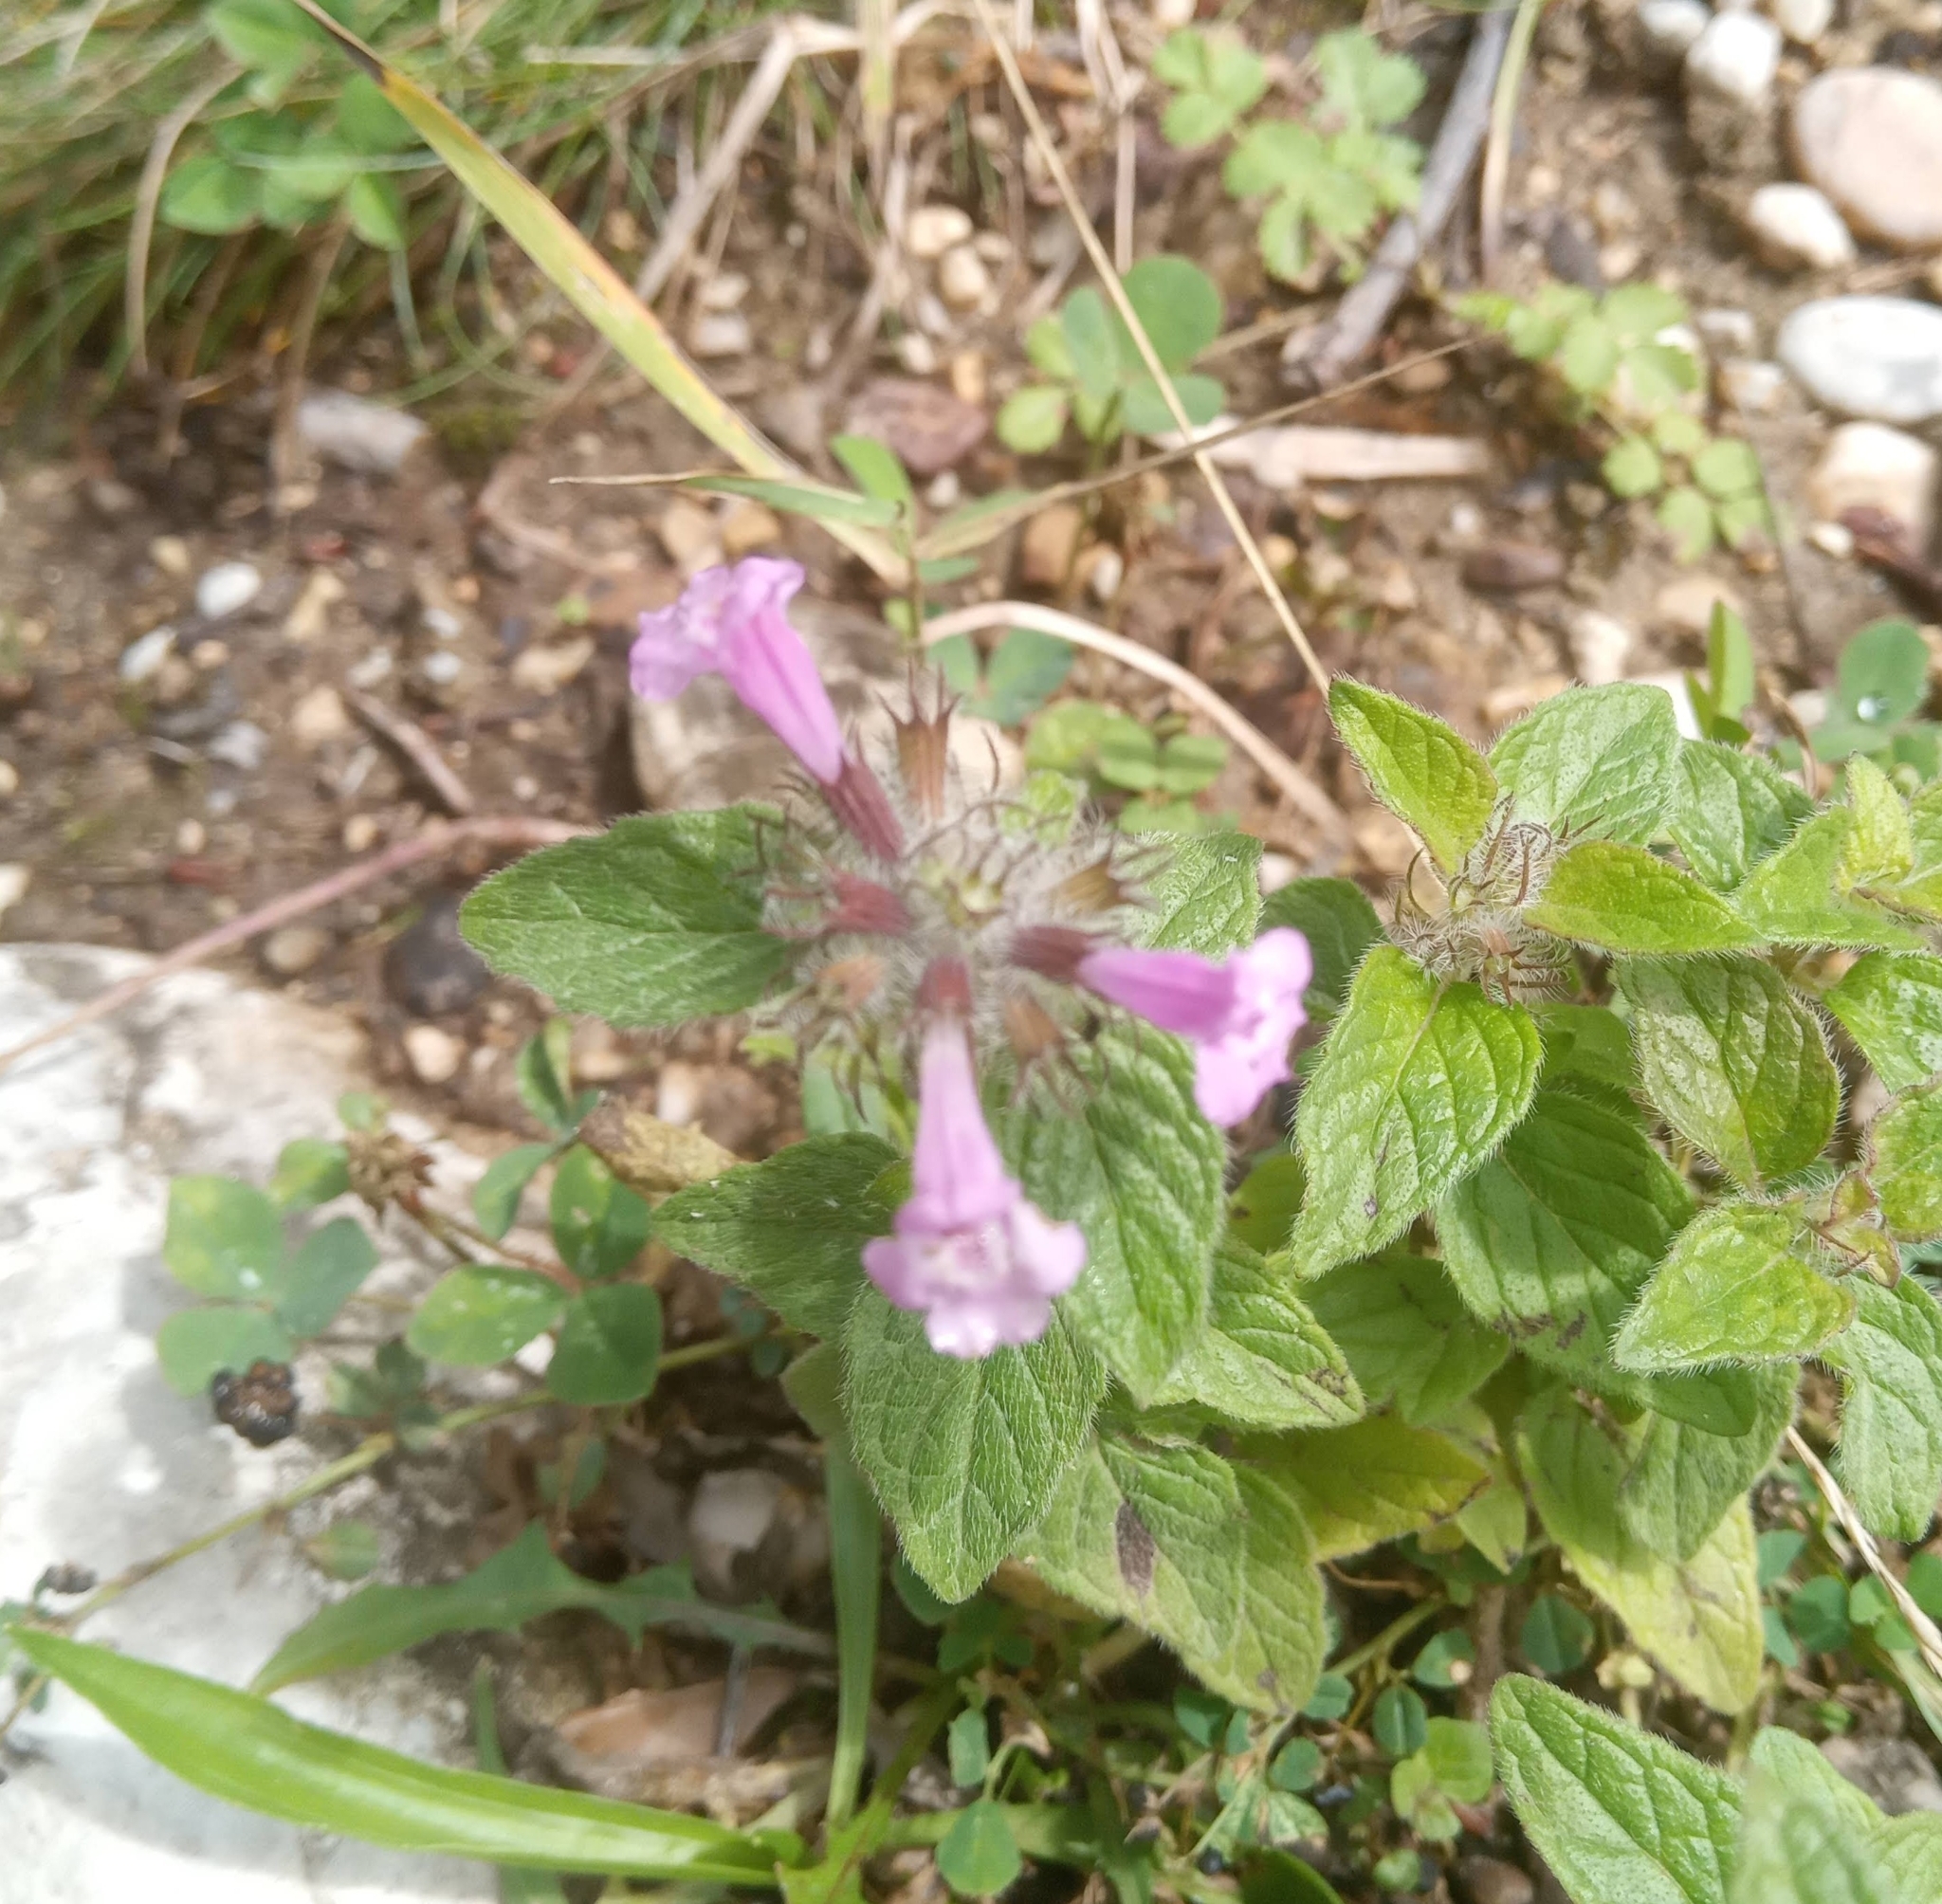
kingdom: Plantae
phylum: Tracheophyta
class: Magnoliopsida
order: Lamiales
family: Lamiaceae
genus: Clinopodium
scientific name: Clinopodium caucasicum
